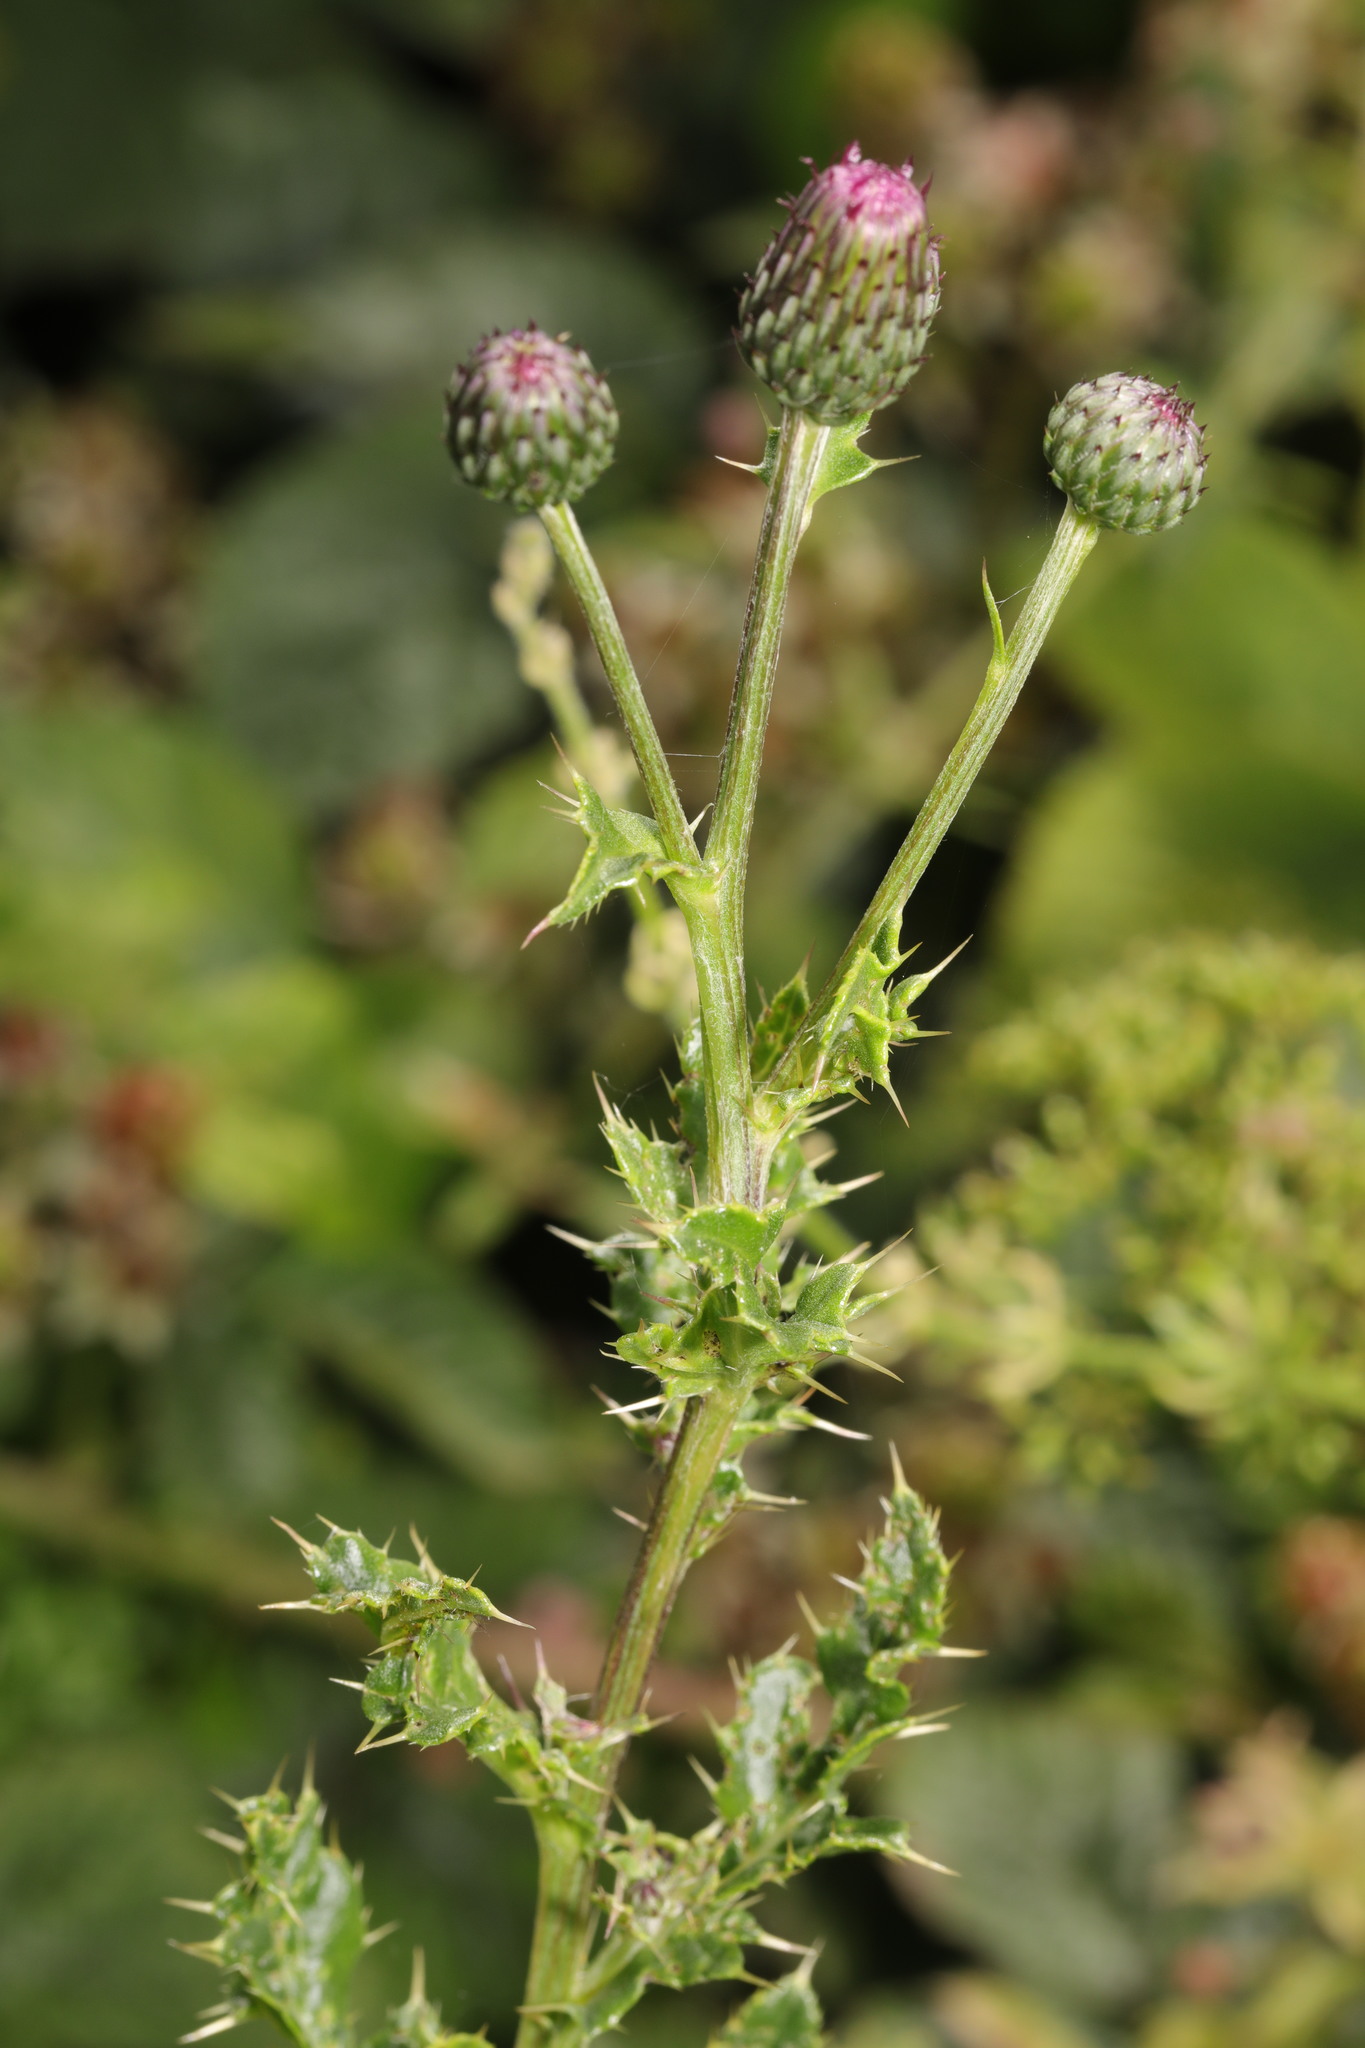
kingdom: Plantae
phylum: Tracheophyta
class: Magnoliopsida
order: Asterales
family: Asteraceae
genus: Cirsium
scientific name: Cirsium arvense
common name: Creeping thistle
